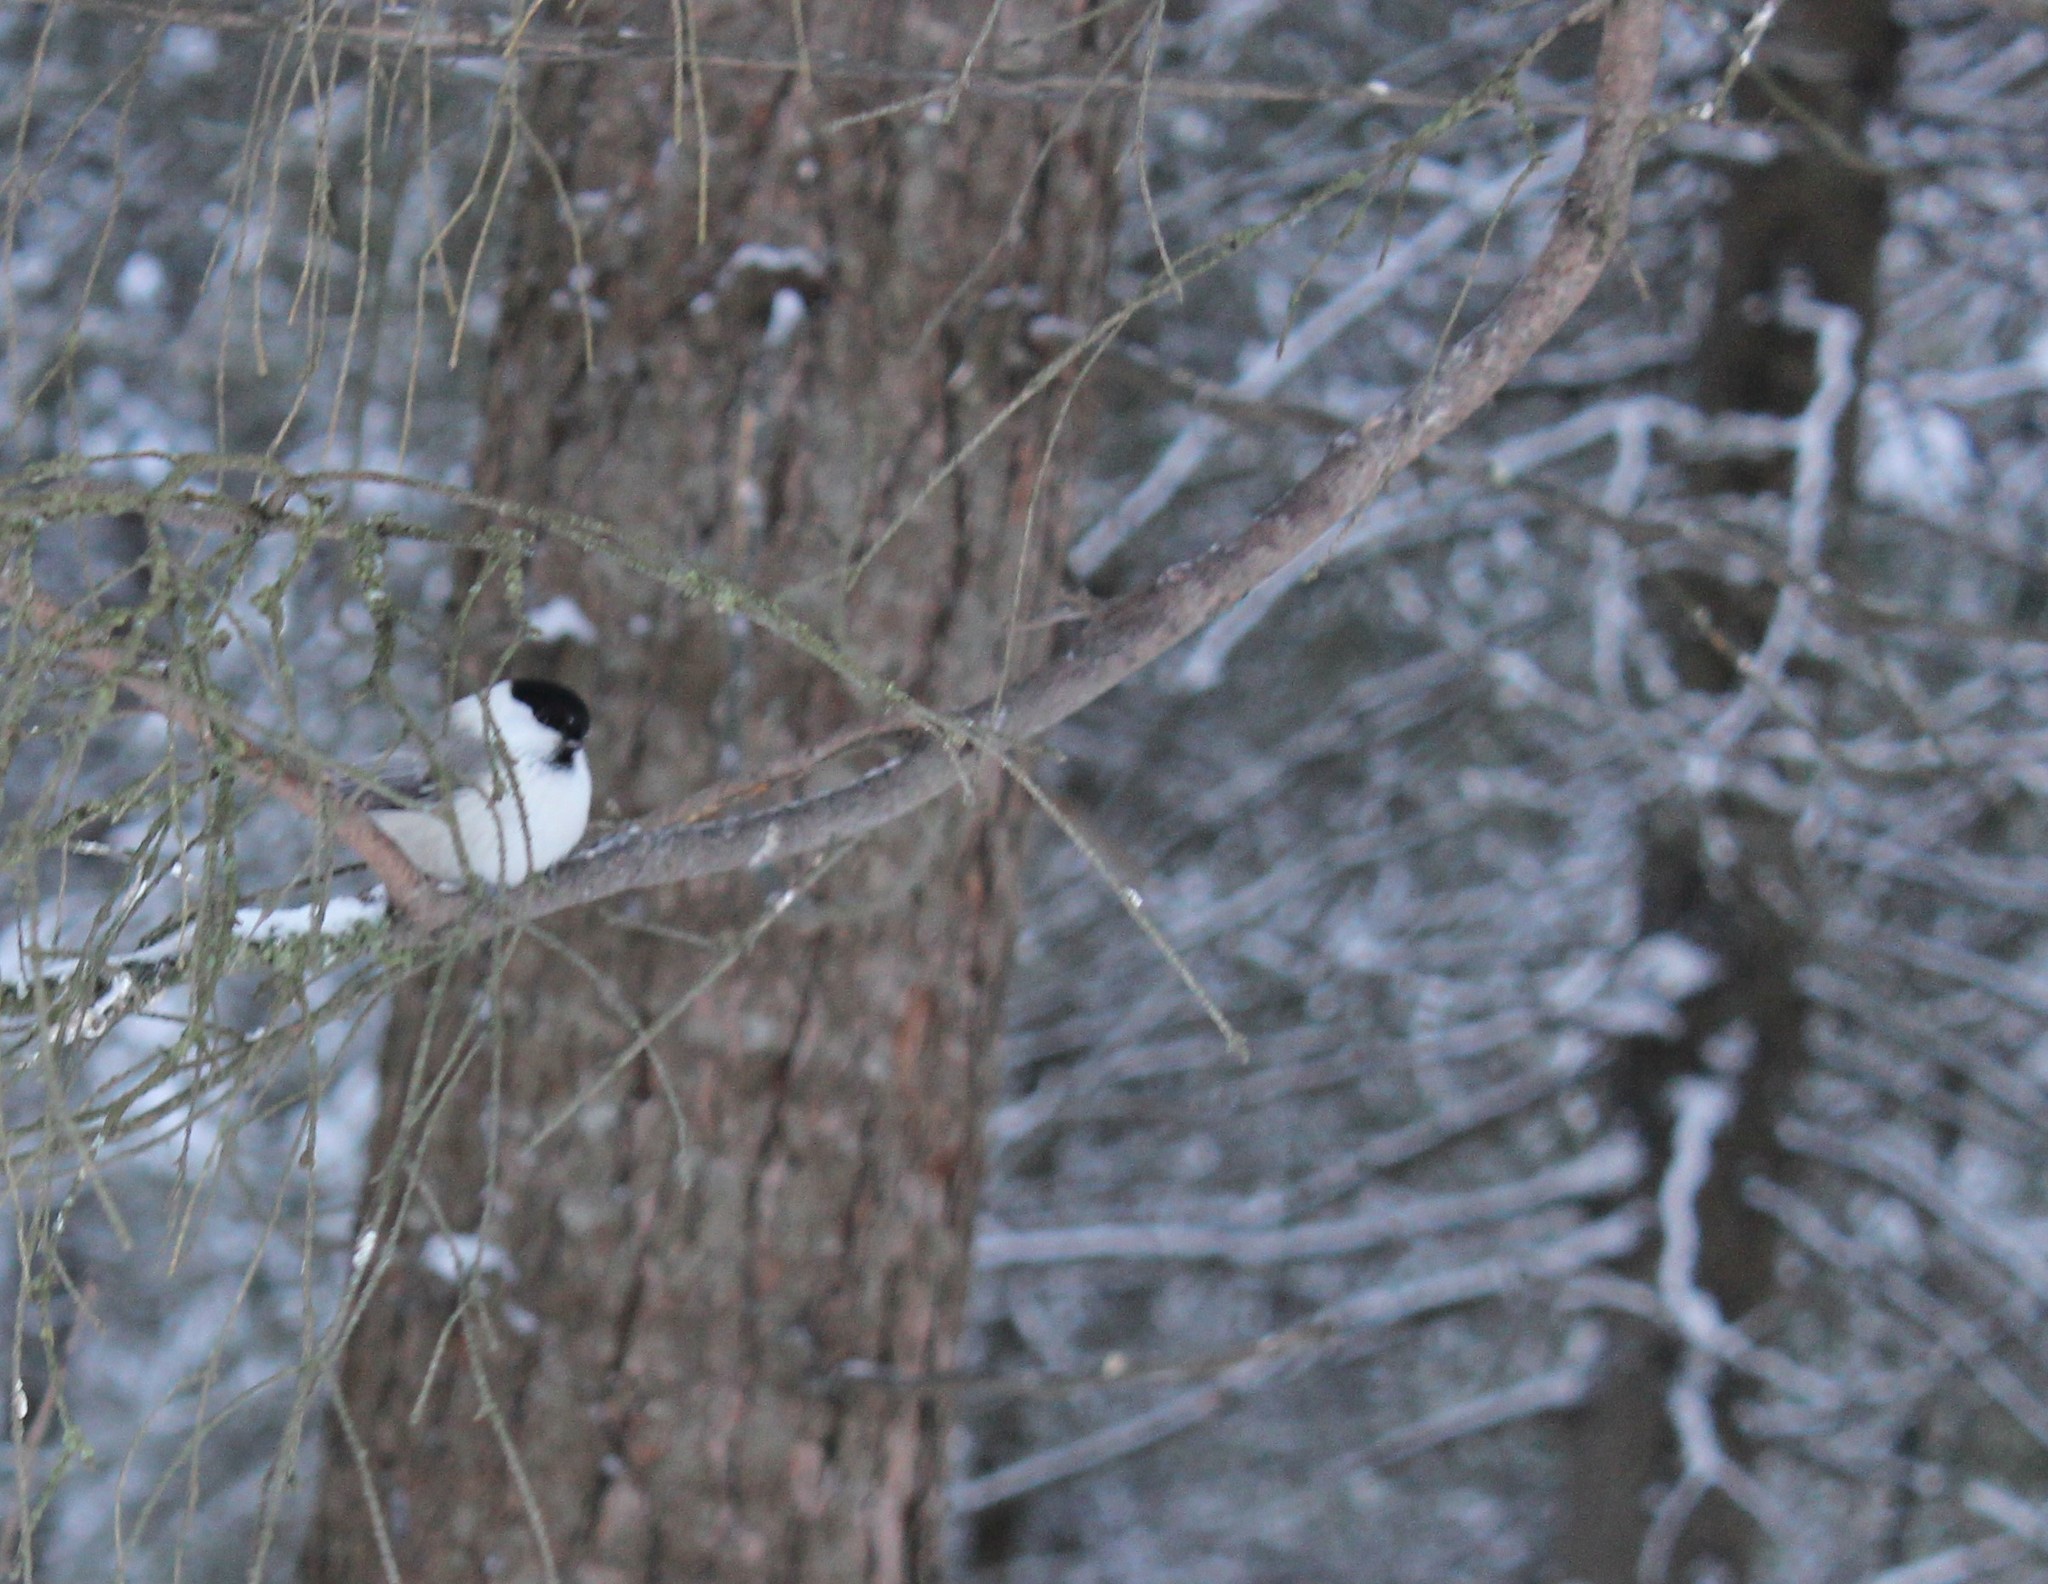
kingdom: Animalia
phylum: Chordata
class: Aves
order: Passeriformes
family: Paridae
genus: Poecile
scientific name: Poecile montanus
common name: Willow tit
